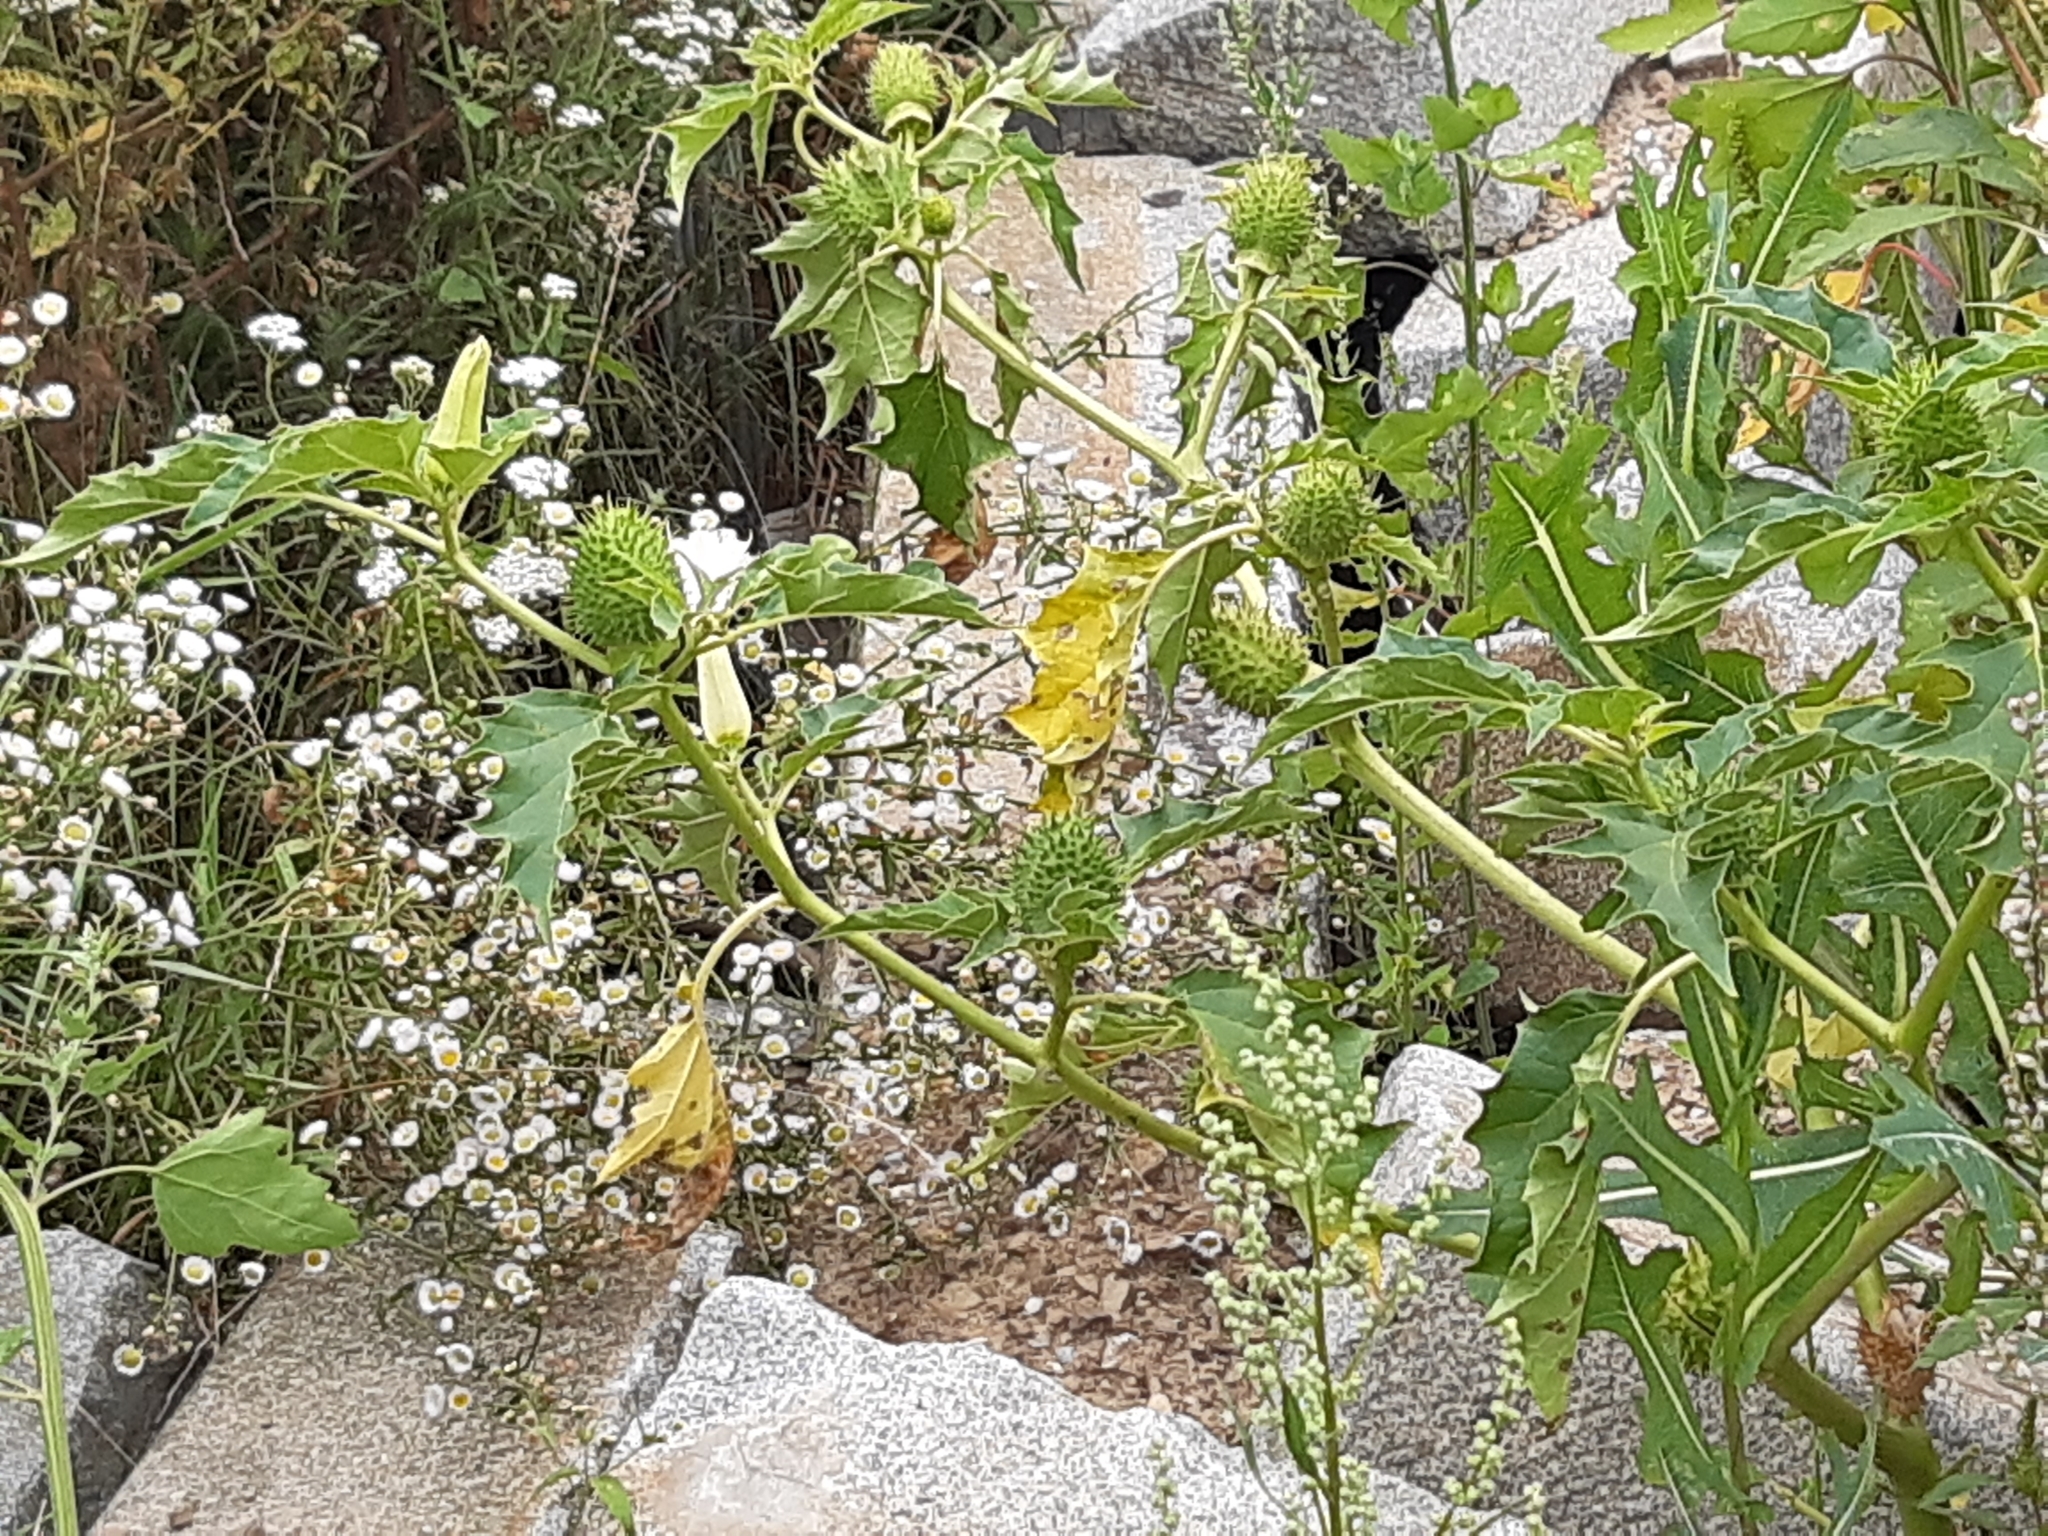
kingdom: Plantae
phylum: Tracheophyta
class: Magnoliopsida
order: Solanales
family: Solanaceae
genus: Datura
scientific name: Datura stramonium
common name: Thorn-apple
